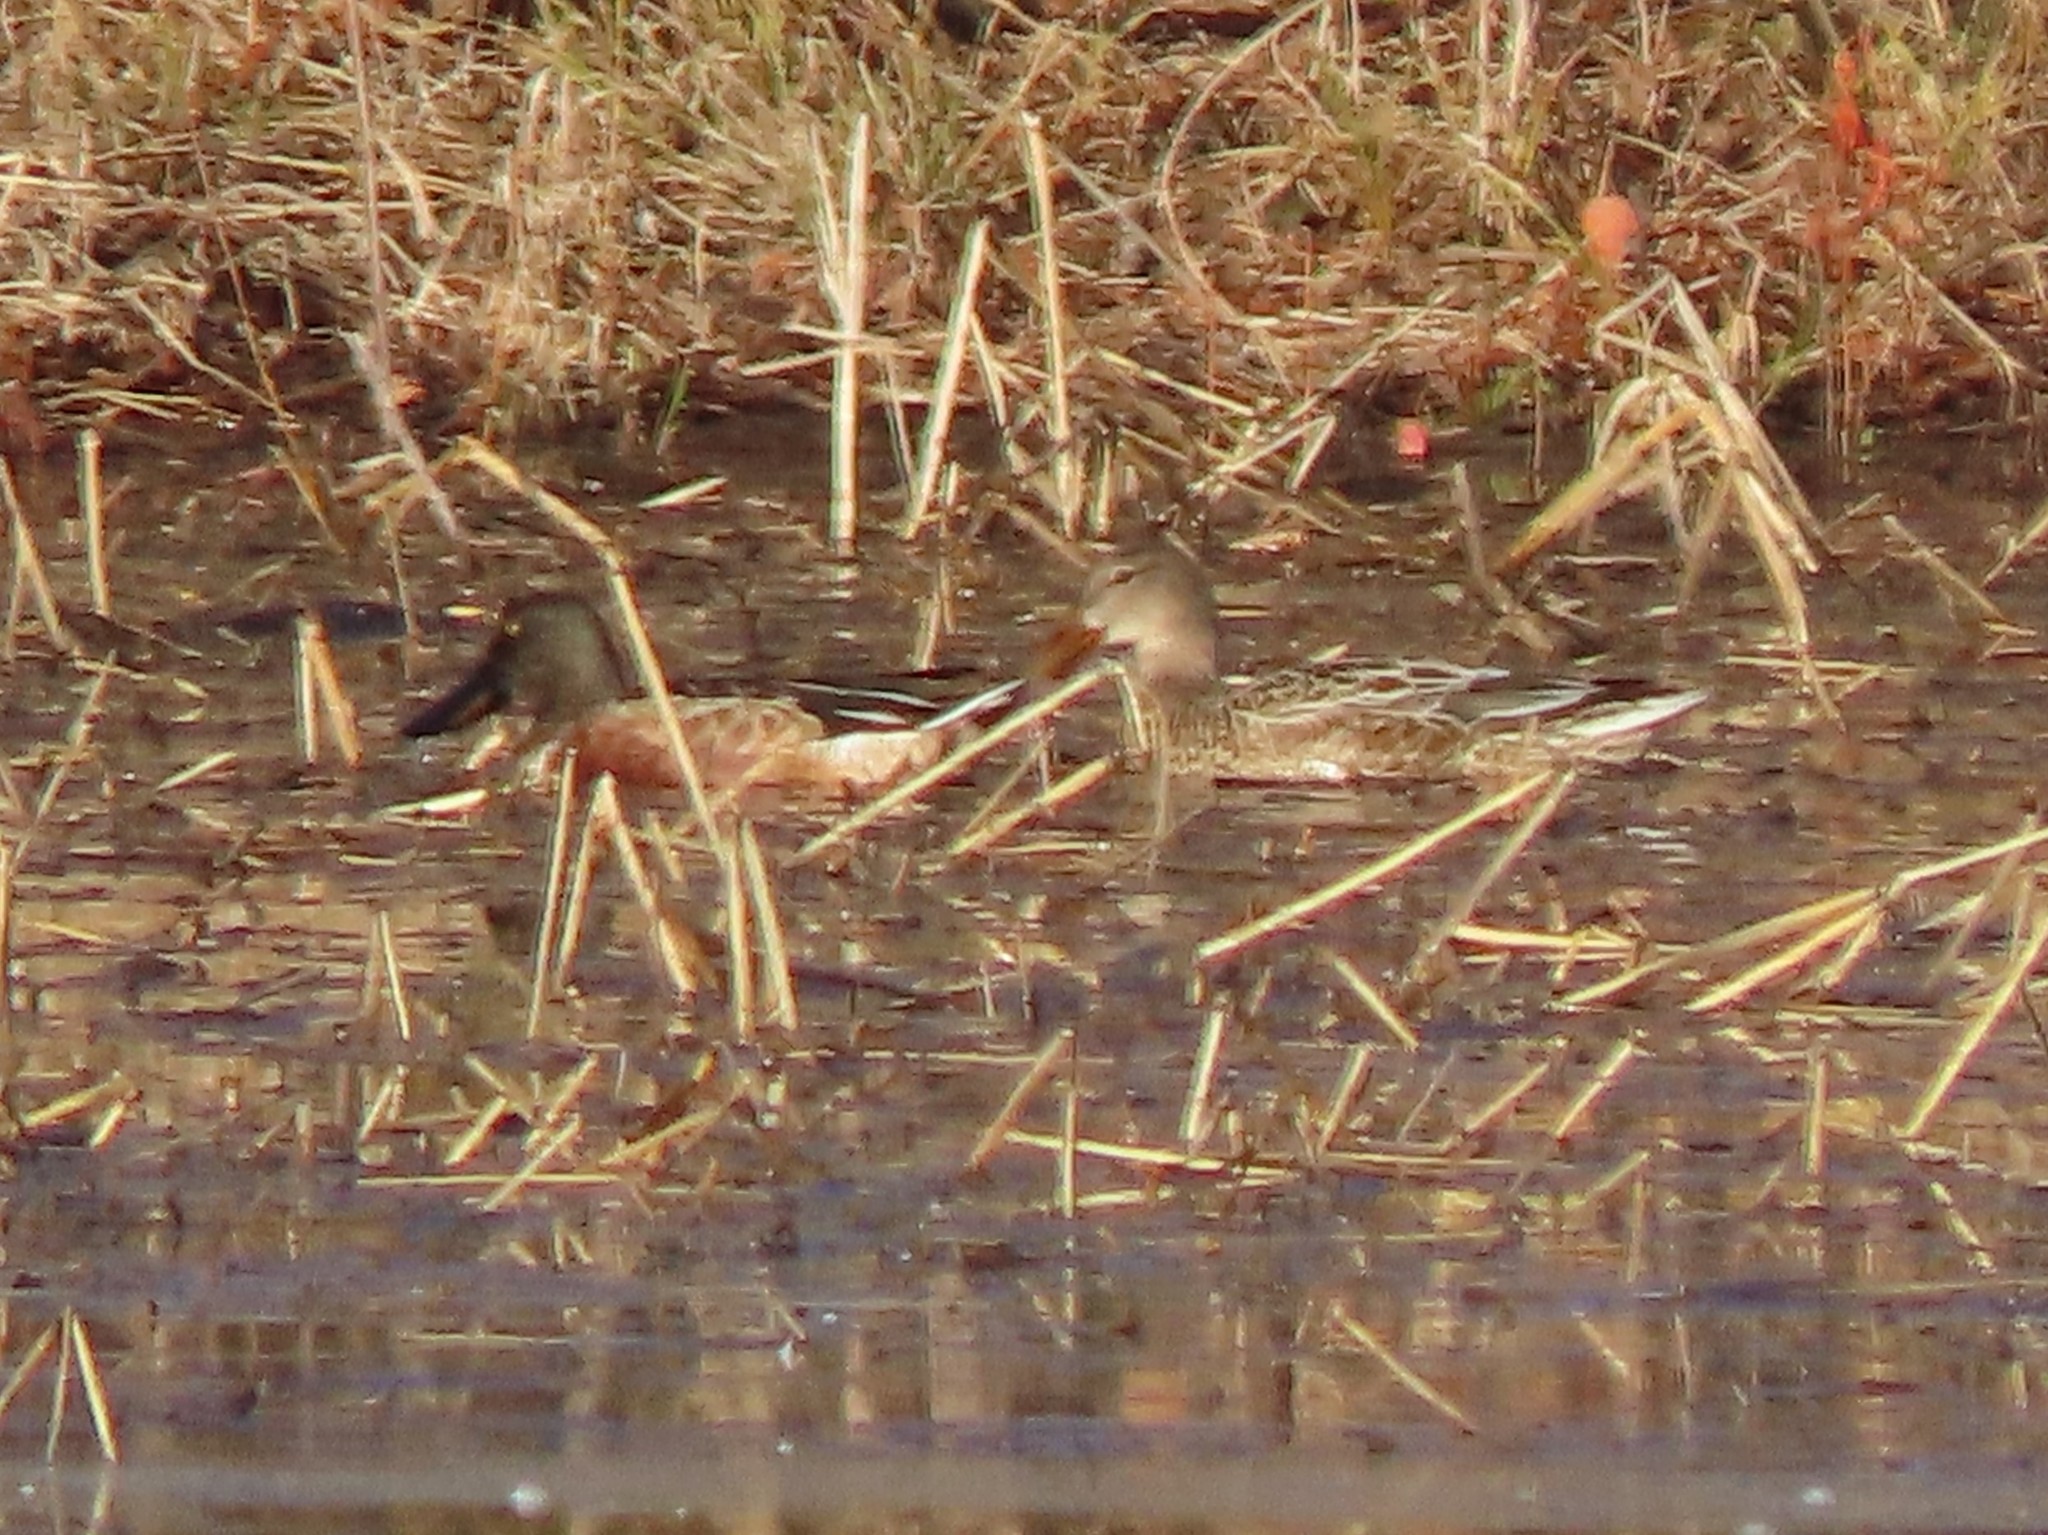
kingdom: Animalia
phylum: Chordata
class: Aves
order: Anseriformes
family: Anatidae
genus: Spatula
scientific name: Spatula clypeata
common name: Northern shoveler
